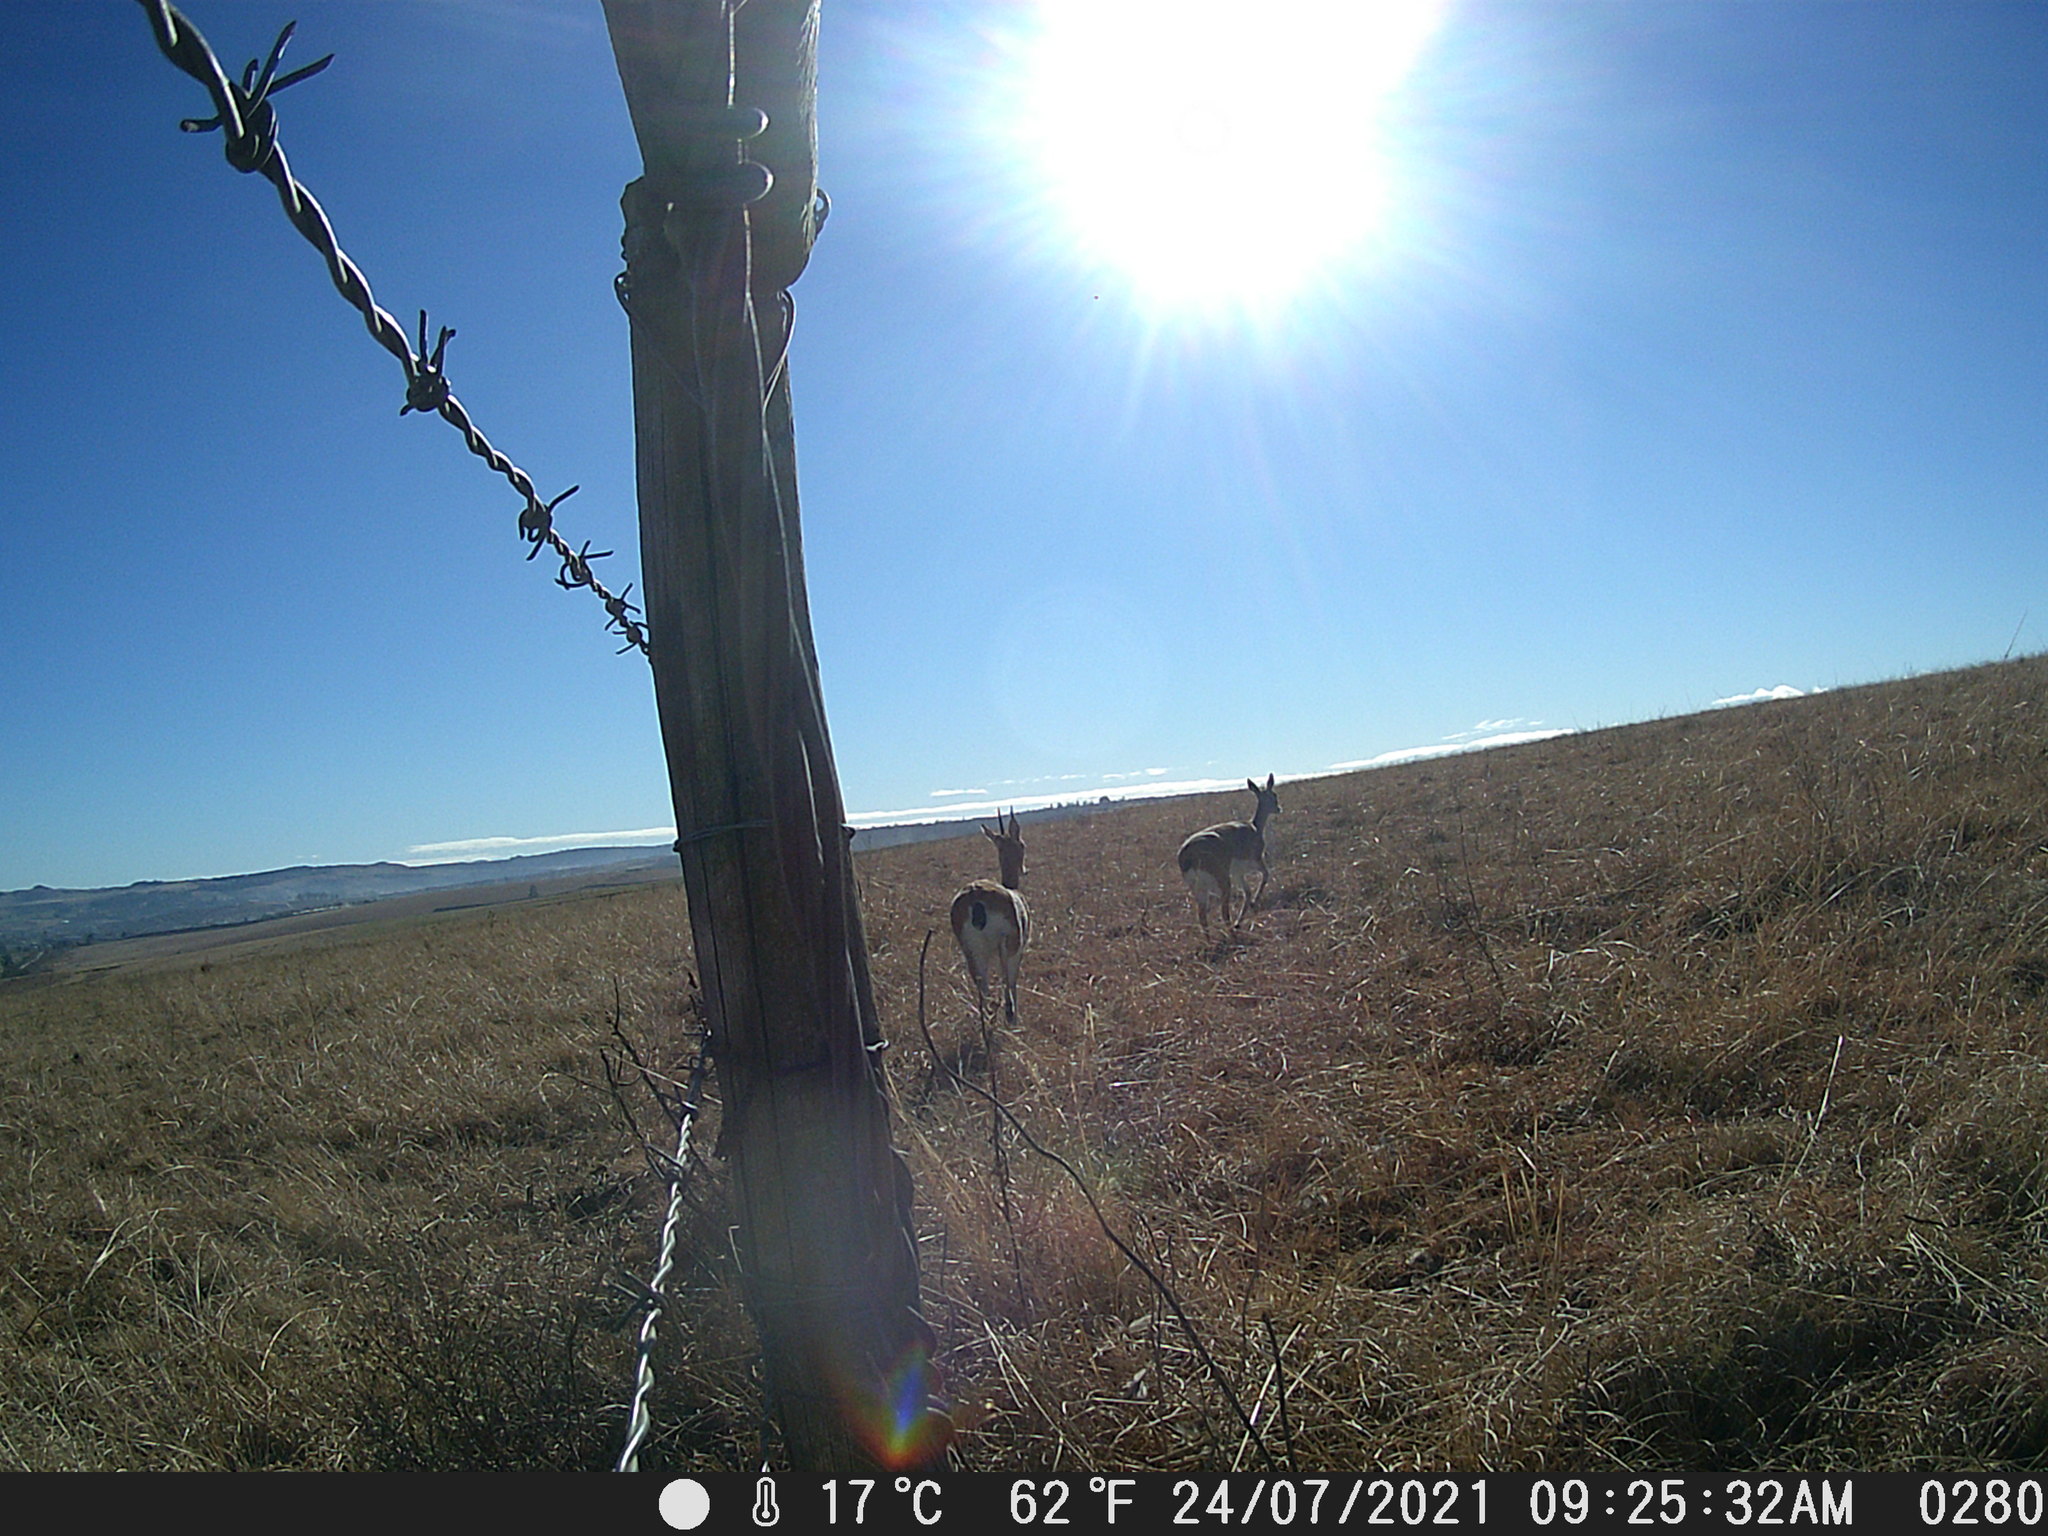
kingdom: Animalia
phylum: Chordata
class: Mammalia
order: Artiodactyla
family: Bovidae
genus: Ourebia
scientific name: Ourebia ourebi
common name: Oribi
